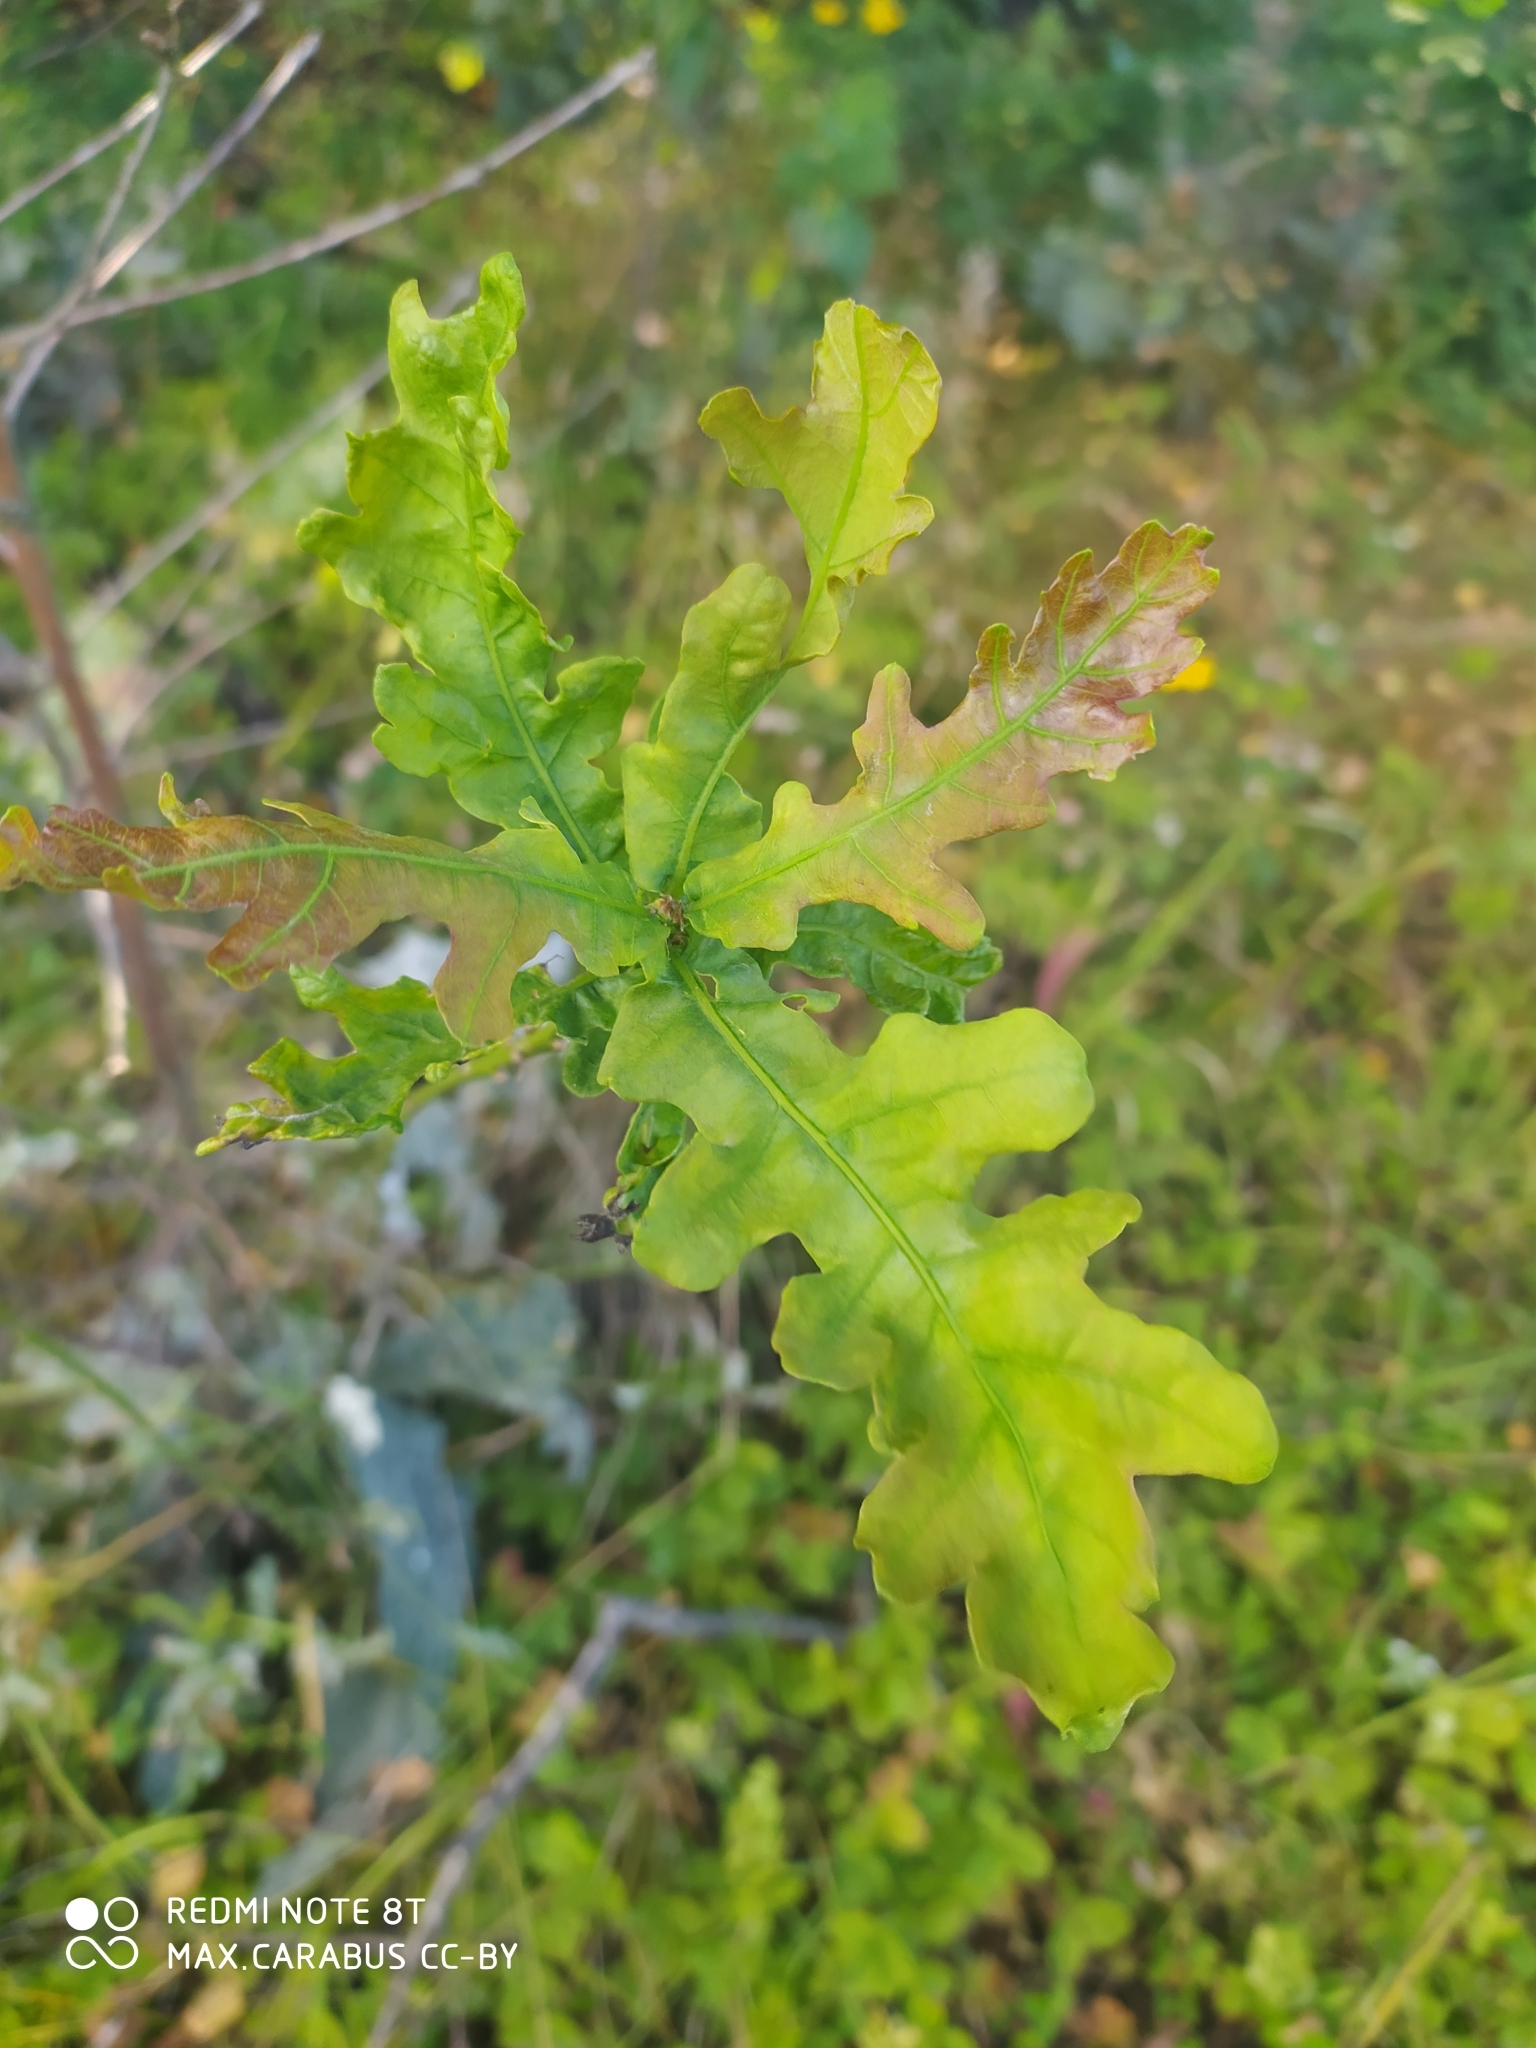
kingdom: Plantae
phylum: Tracheophyta
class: Magnoliopsida
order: Fagales
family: Fagaceae
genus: Quercus
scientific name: Quercus robur
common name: Pedunculate oak
